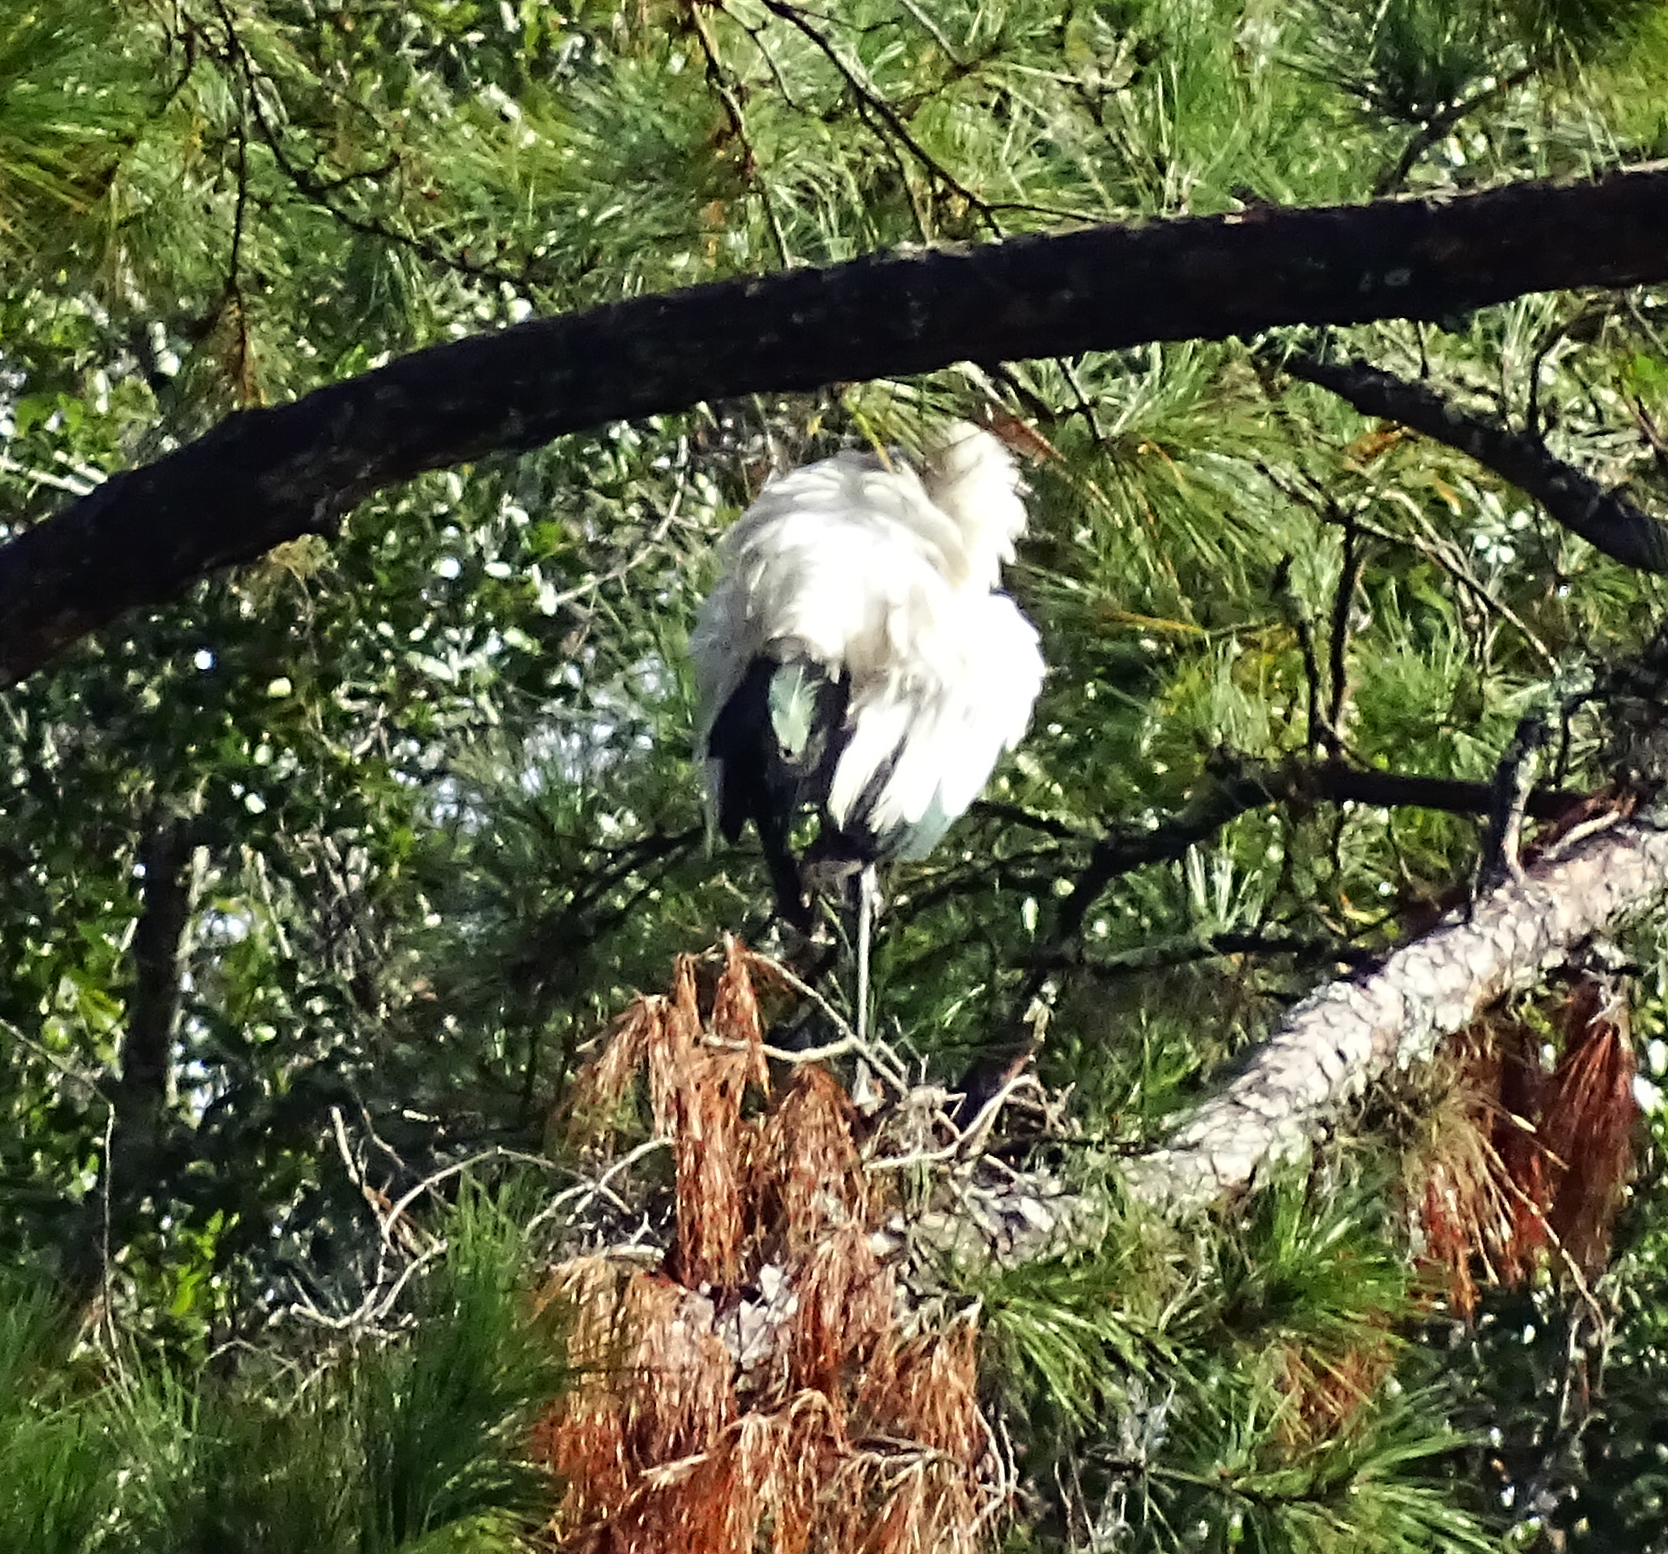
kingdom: Animalia
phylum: Chordata
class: Aves
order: Ciconiiformes
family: Ciconiidae
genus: Mycteria
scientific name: Mycteria americana
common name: Wood stork
